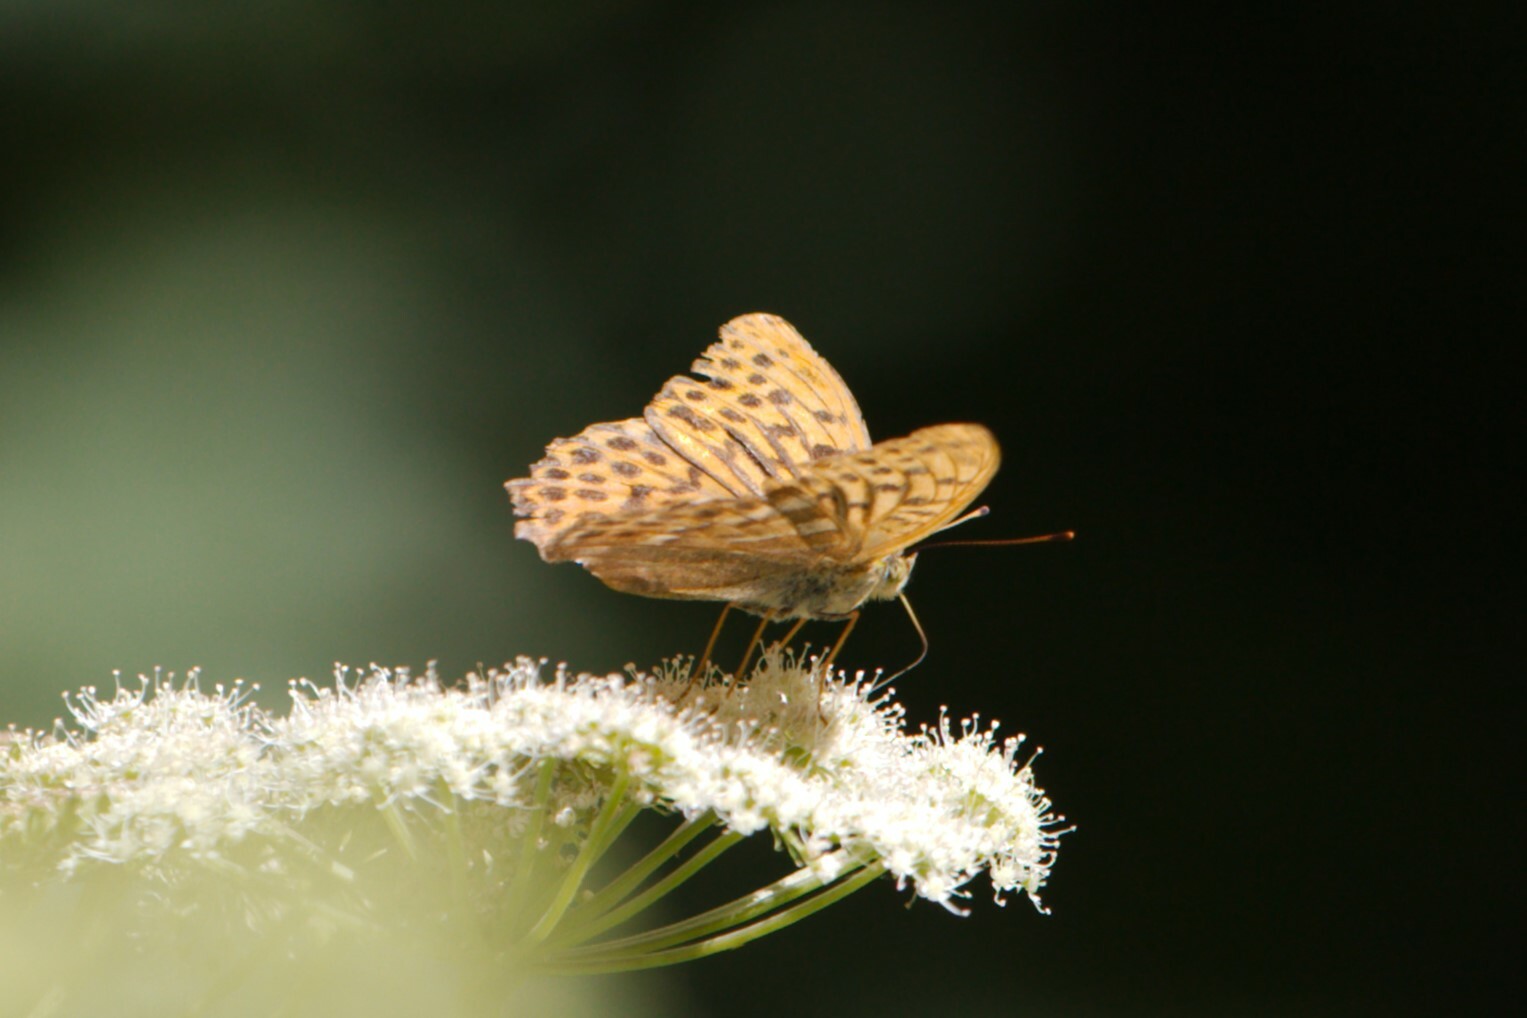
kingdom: Animalia
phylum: Arthropoda
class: Insecta
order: Lepidoptera
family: Nymphalidae
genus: Argynnis
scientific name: Argynnis paphia
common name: Silver-washed fritillary
